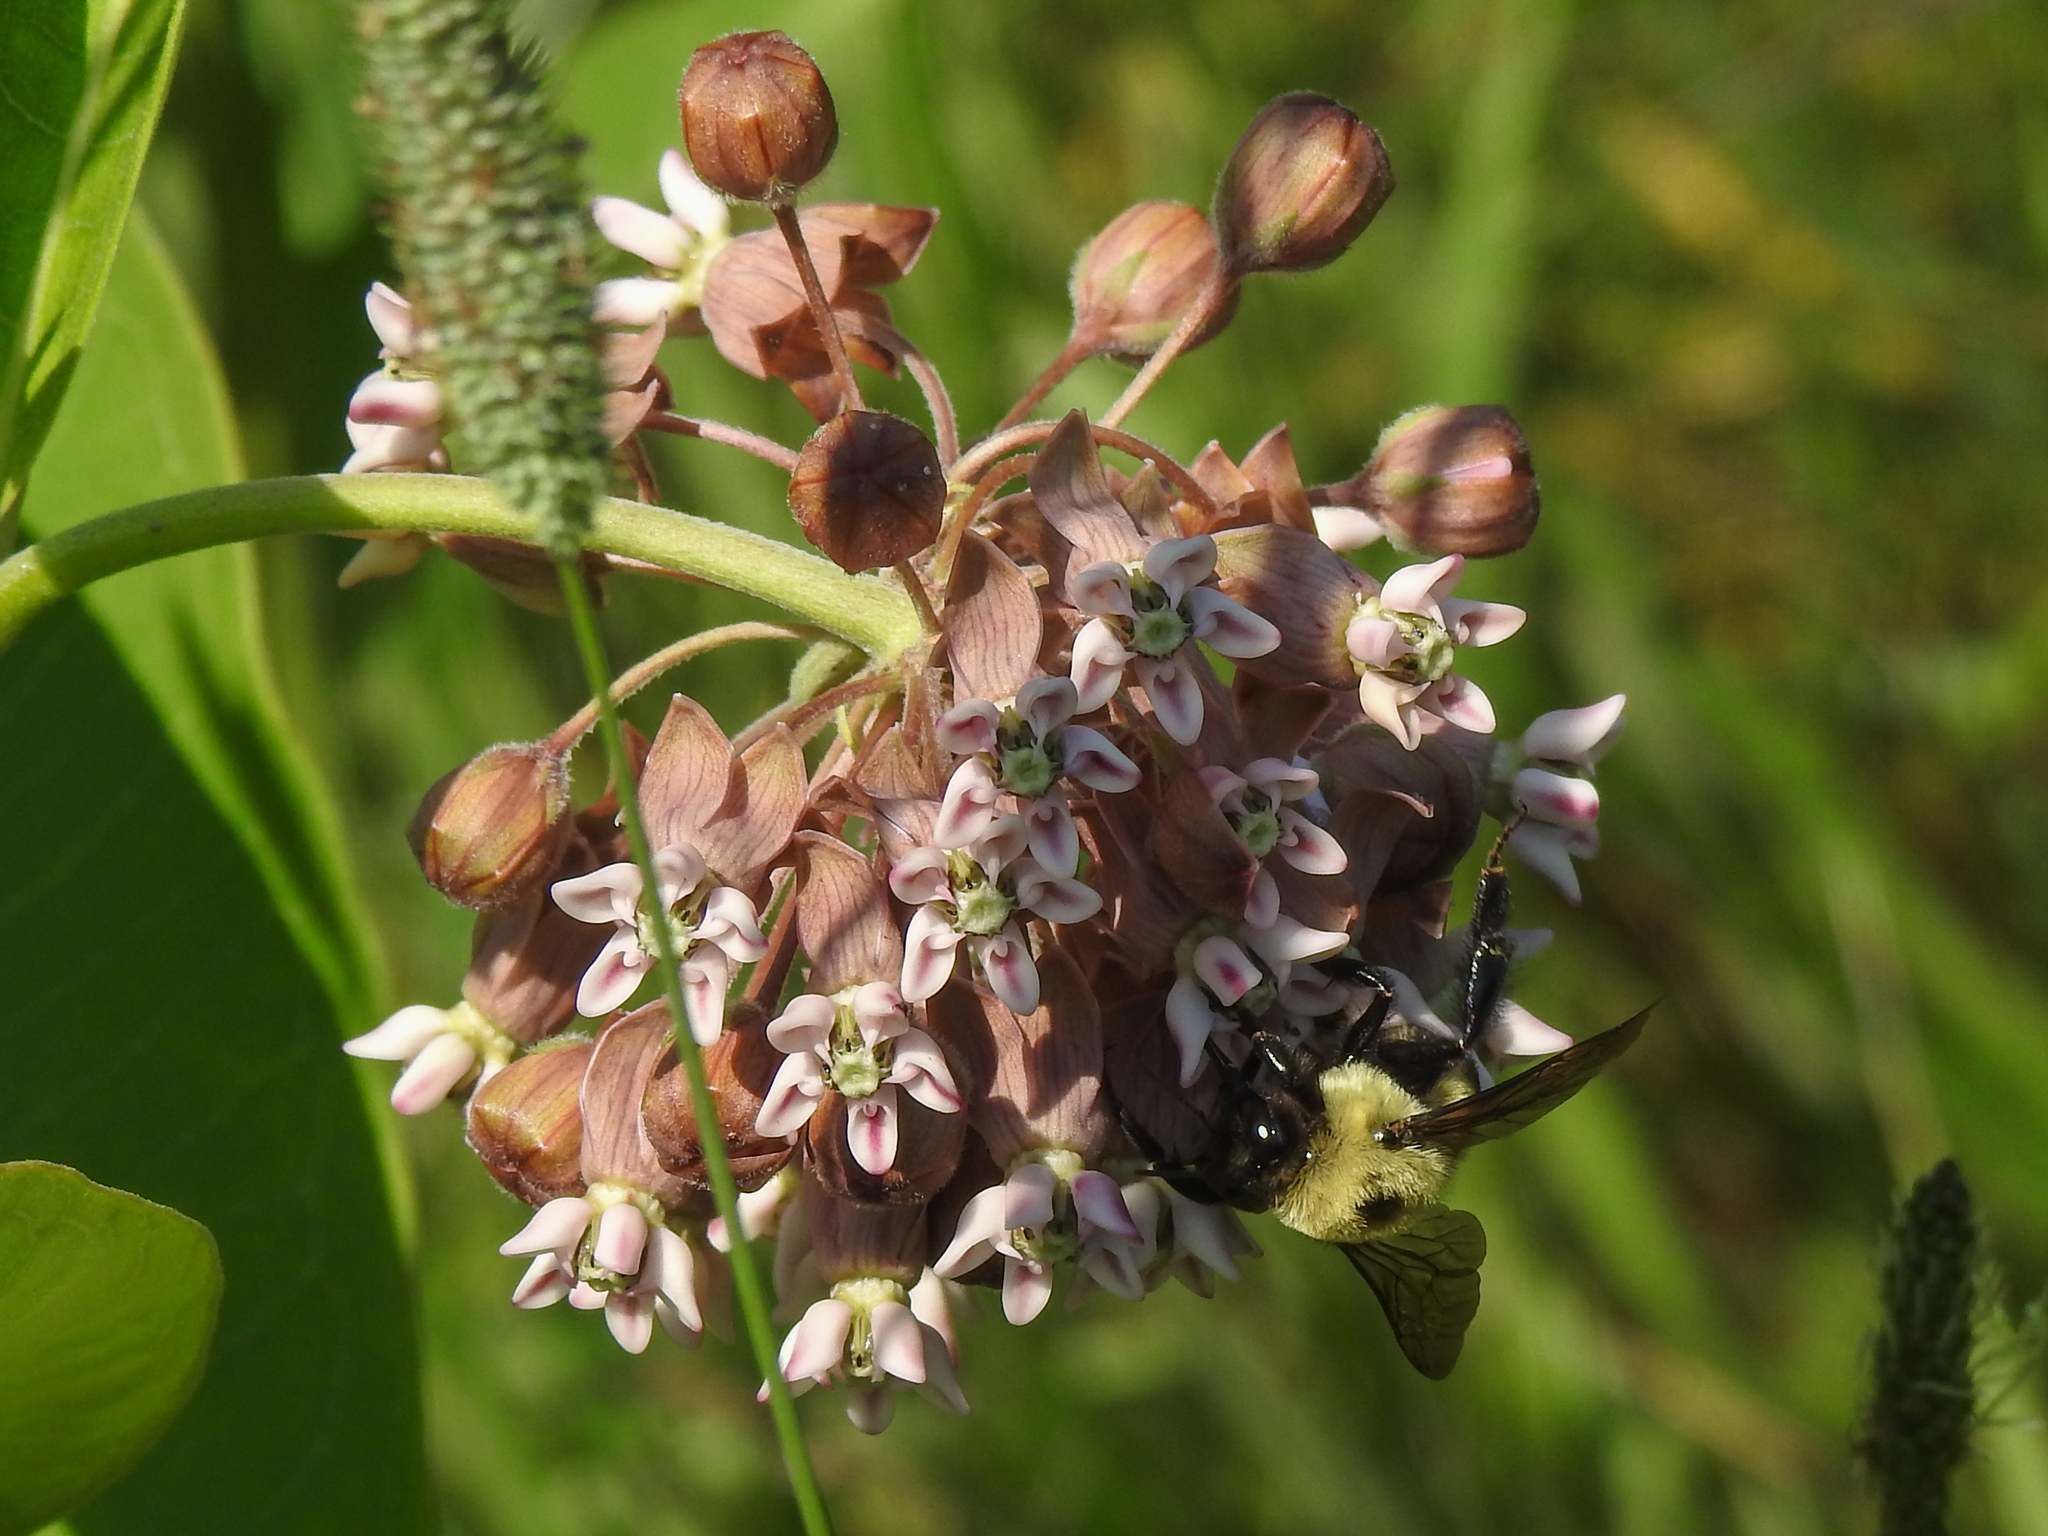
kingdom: Animalia
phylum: Arthropoda
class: Insecta
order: Hymenoptera
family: Apidae
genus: Bombus
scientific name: Bombus griseocollis
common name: Brown-belted bumble bee
